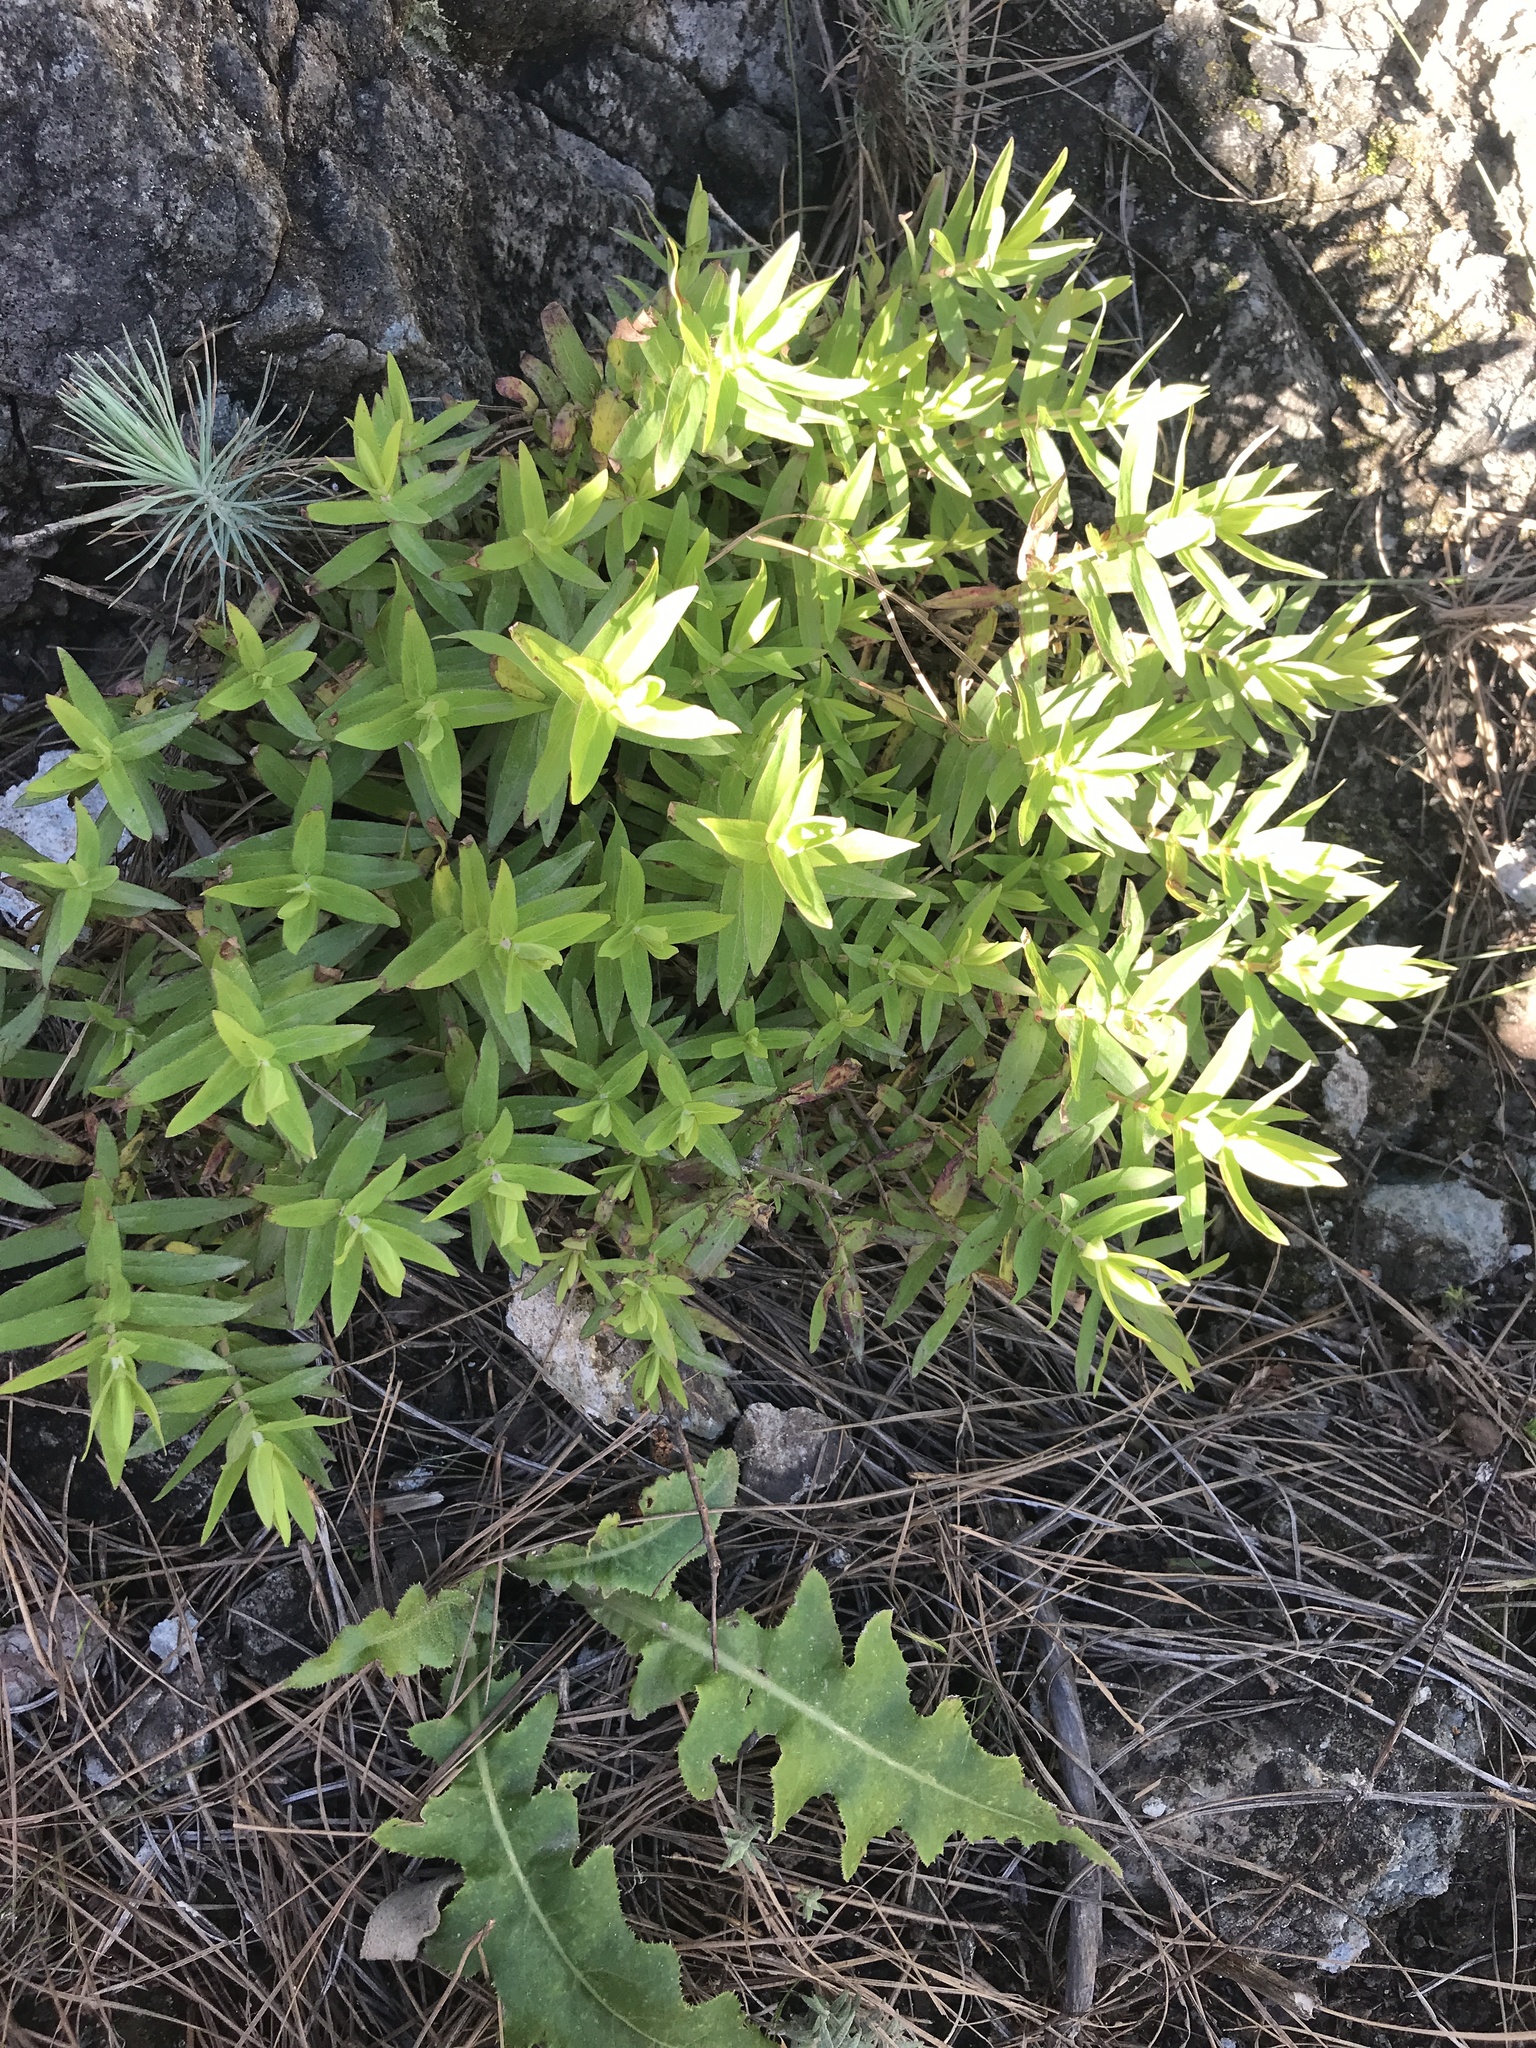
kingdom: Plantae
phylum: Tracheophyta
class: Magnoliopsida
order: Malpighiales
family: Hypericaceae
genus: Hypericum
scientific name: Hypericum reflexum
